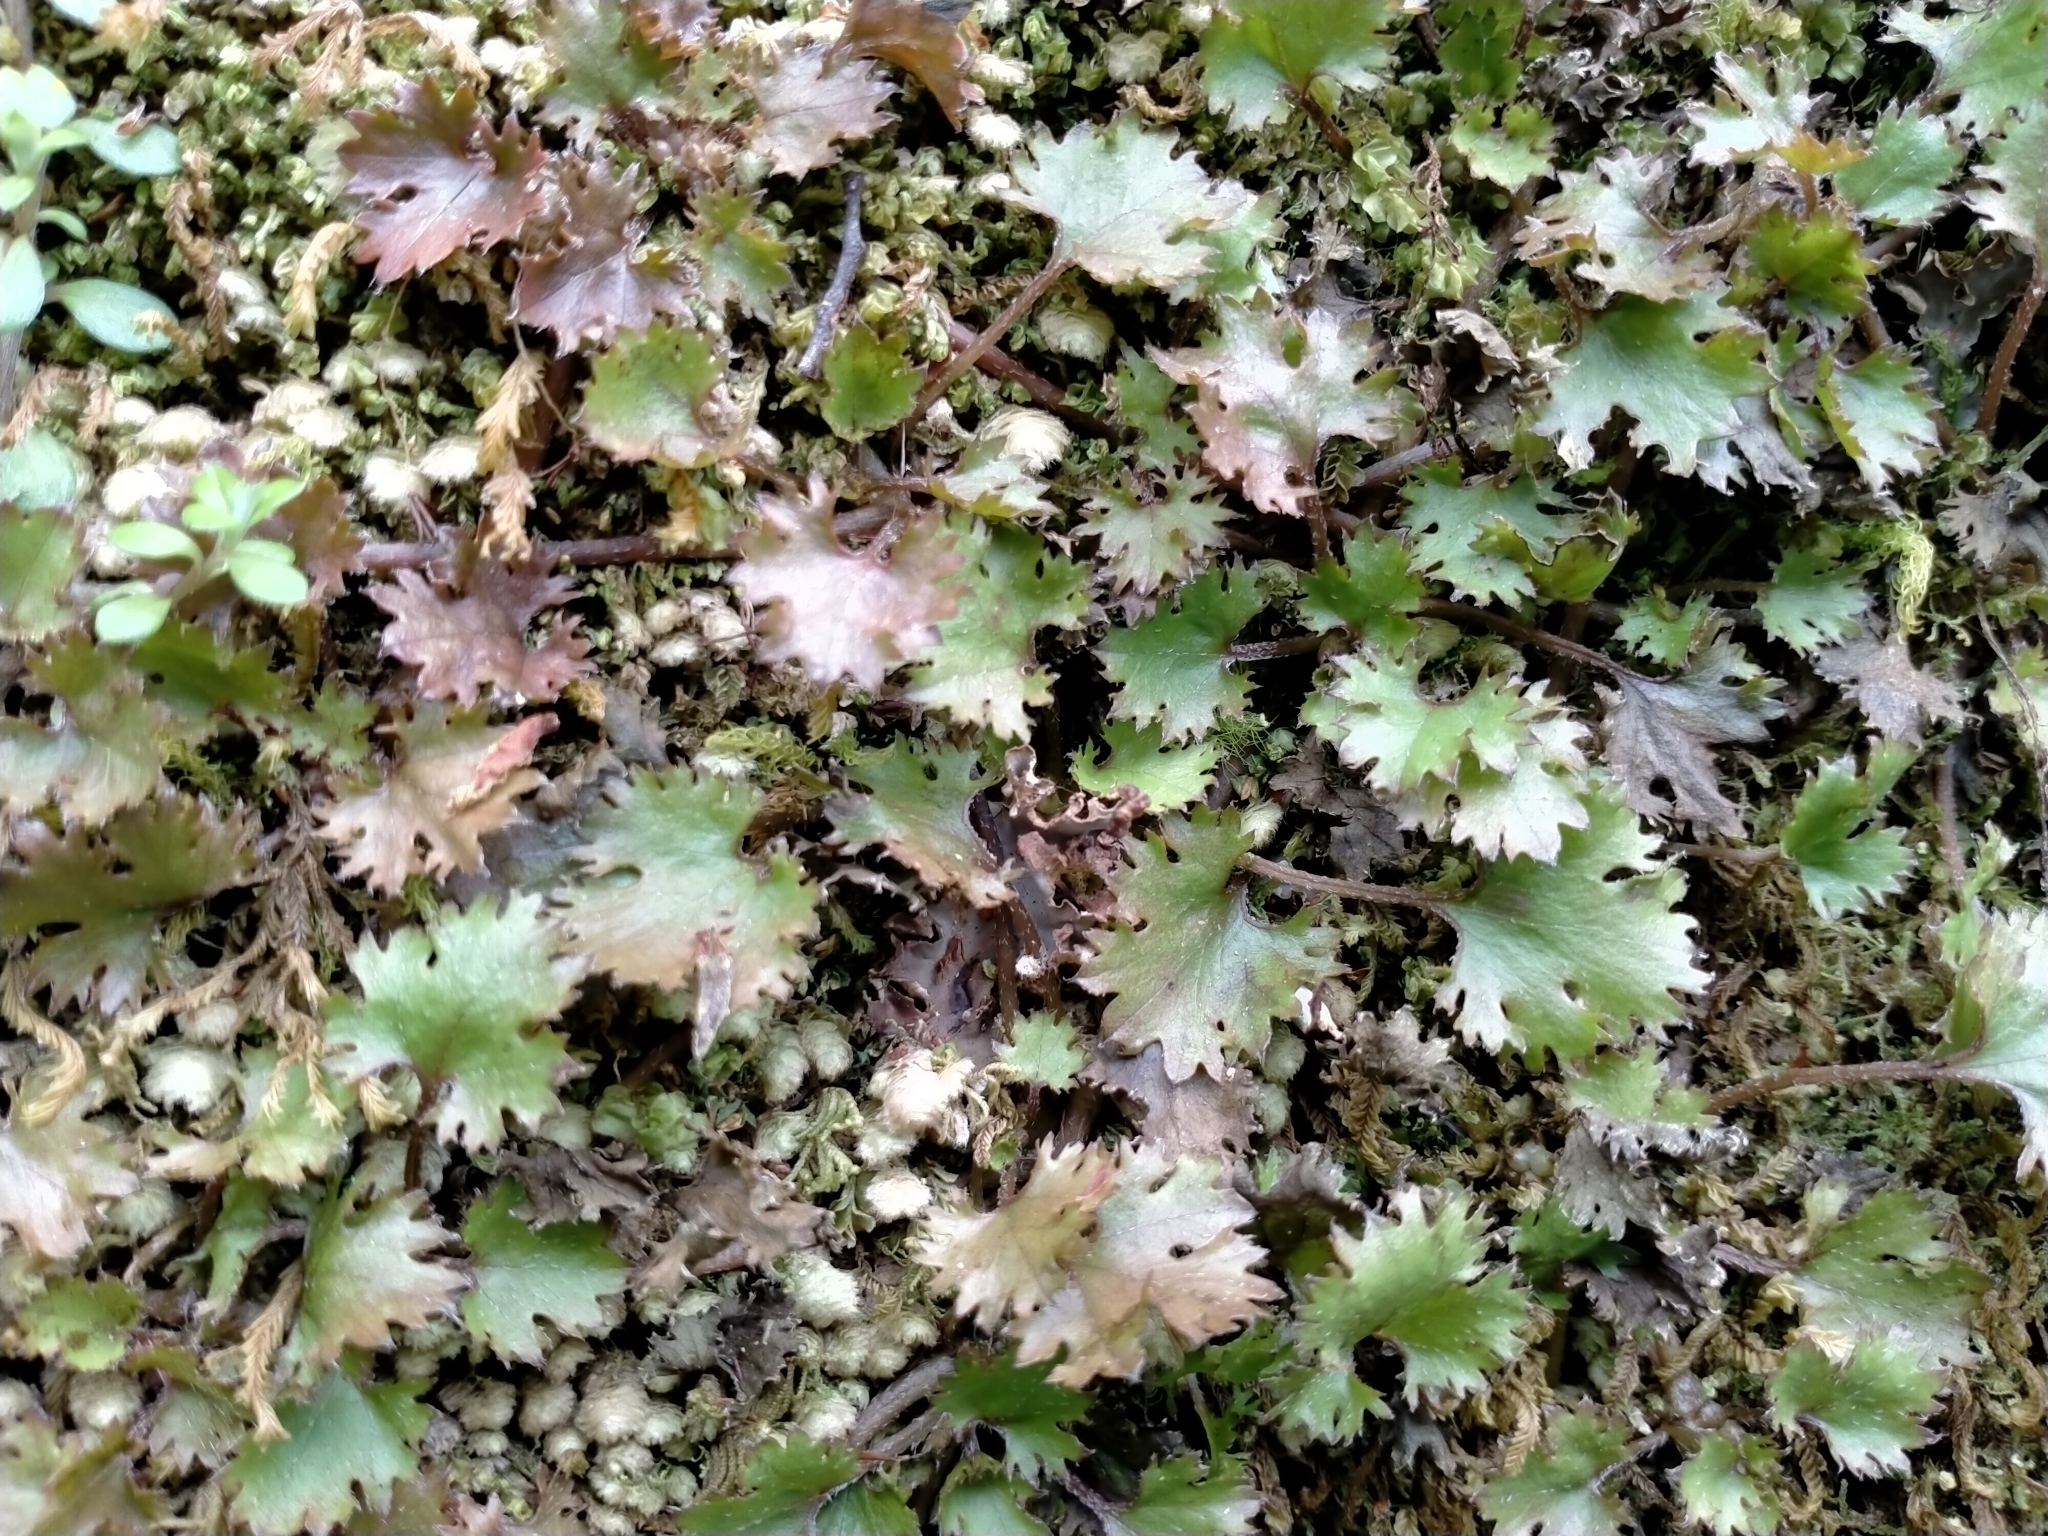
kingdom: Plantae
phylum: Tracheophyta
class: Magnoliopsida
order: Gunnerales
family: Gunneraceae
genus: Gunnera
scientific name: Gunnera monoica
